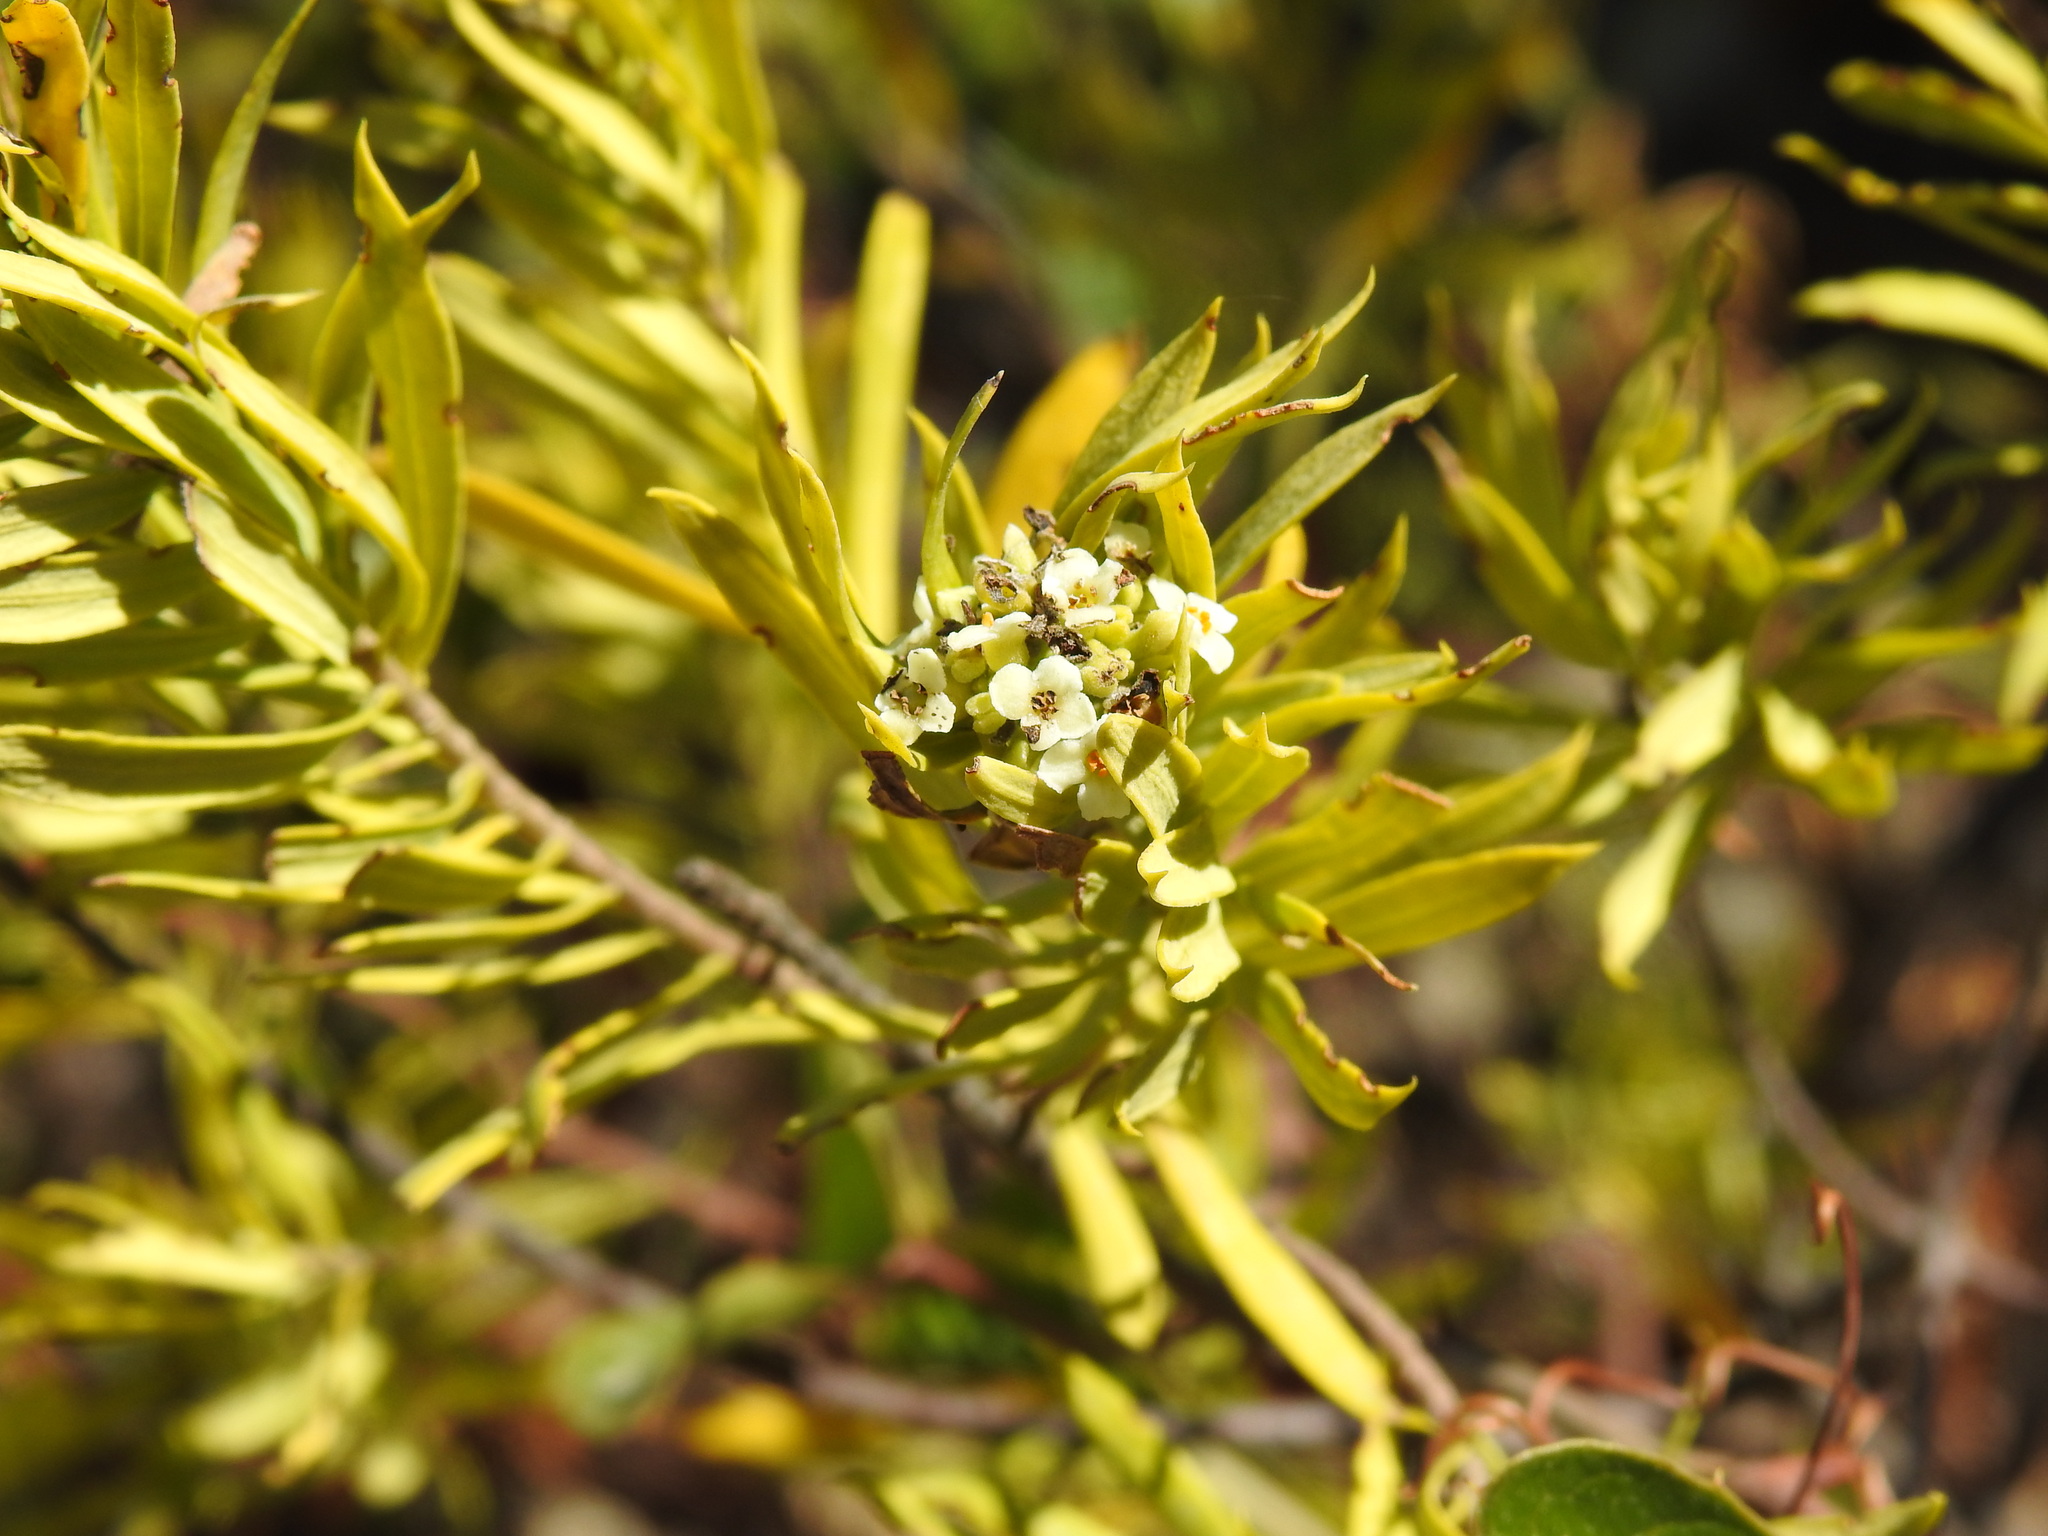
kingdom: Plantae
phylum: Tracheophyta
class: Magnoliopsida
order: Malvales
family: Thymelaeaceae
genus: Daphne
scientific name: Daphne gnidium
